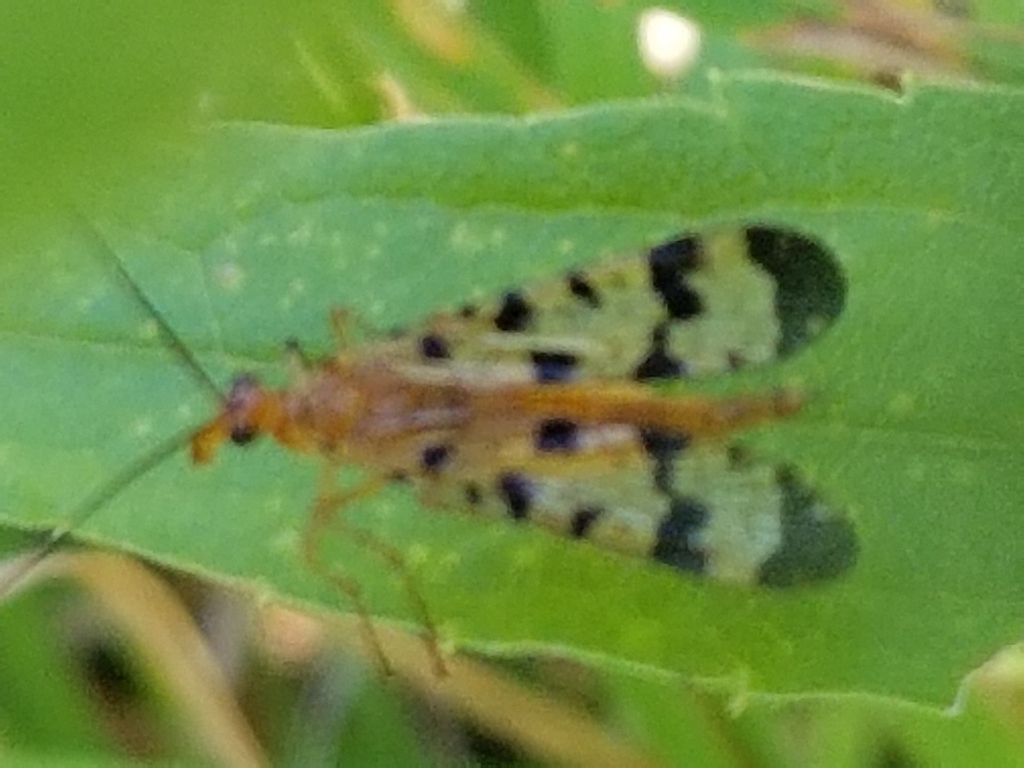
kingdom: Animalia
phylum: Arthropoda
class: Insecta
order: Mecoptera
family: Panorpidae
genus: Panorpa
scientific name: Panorpa helena
